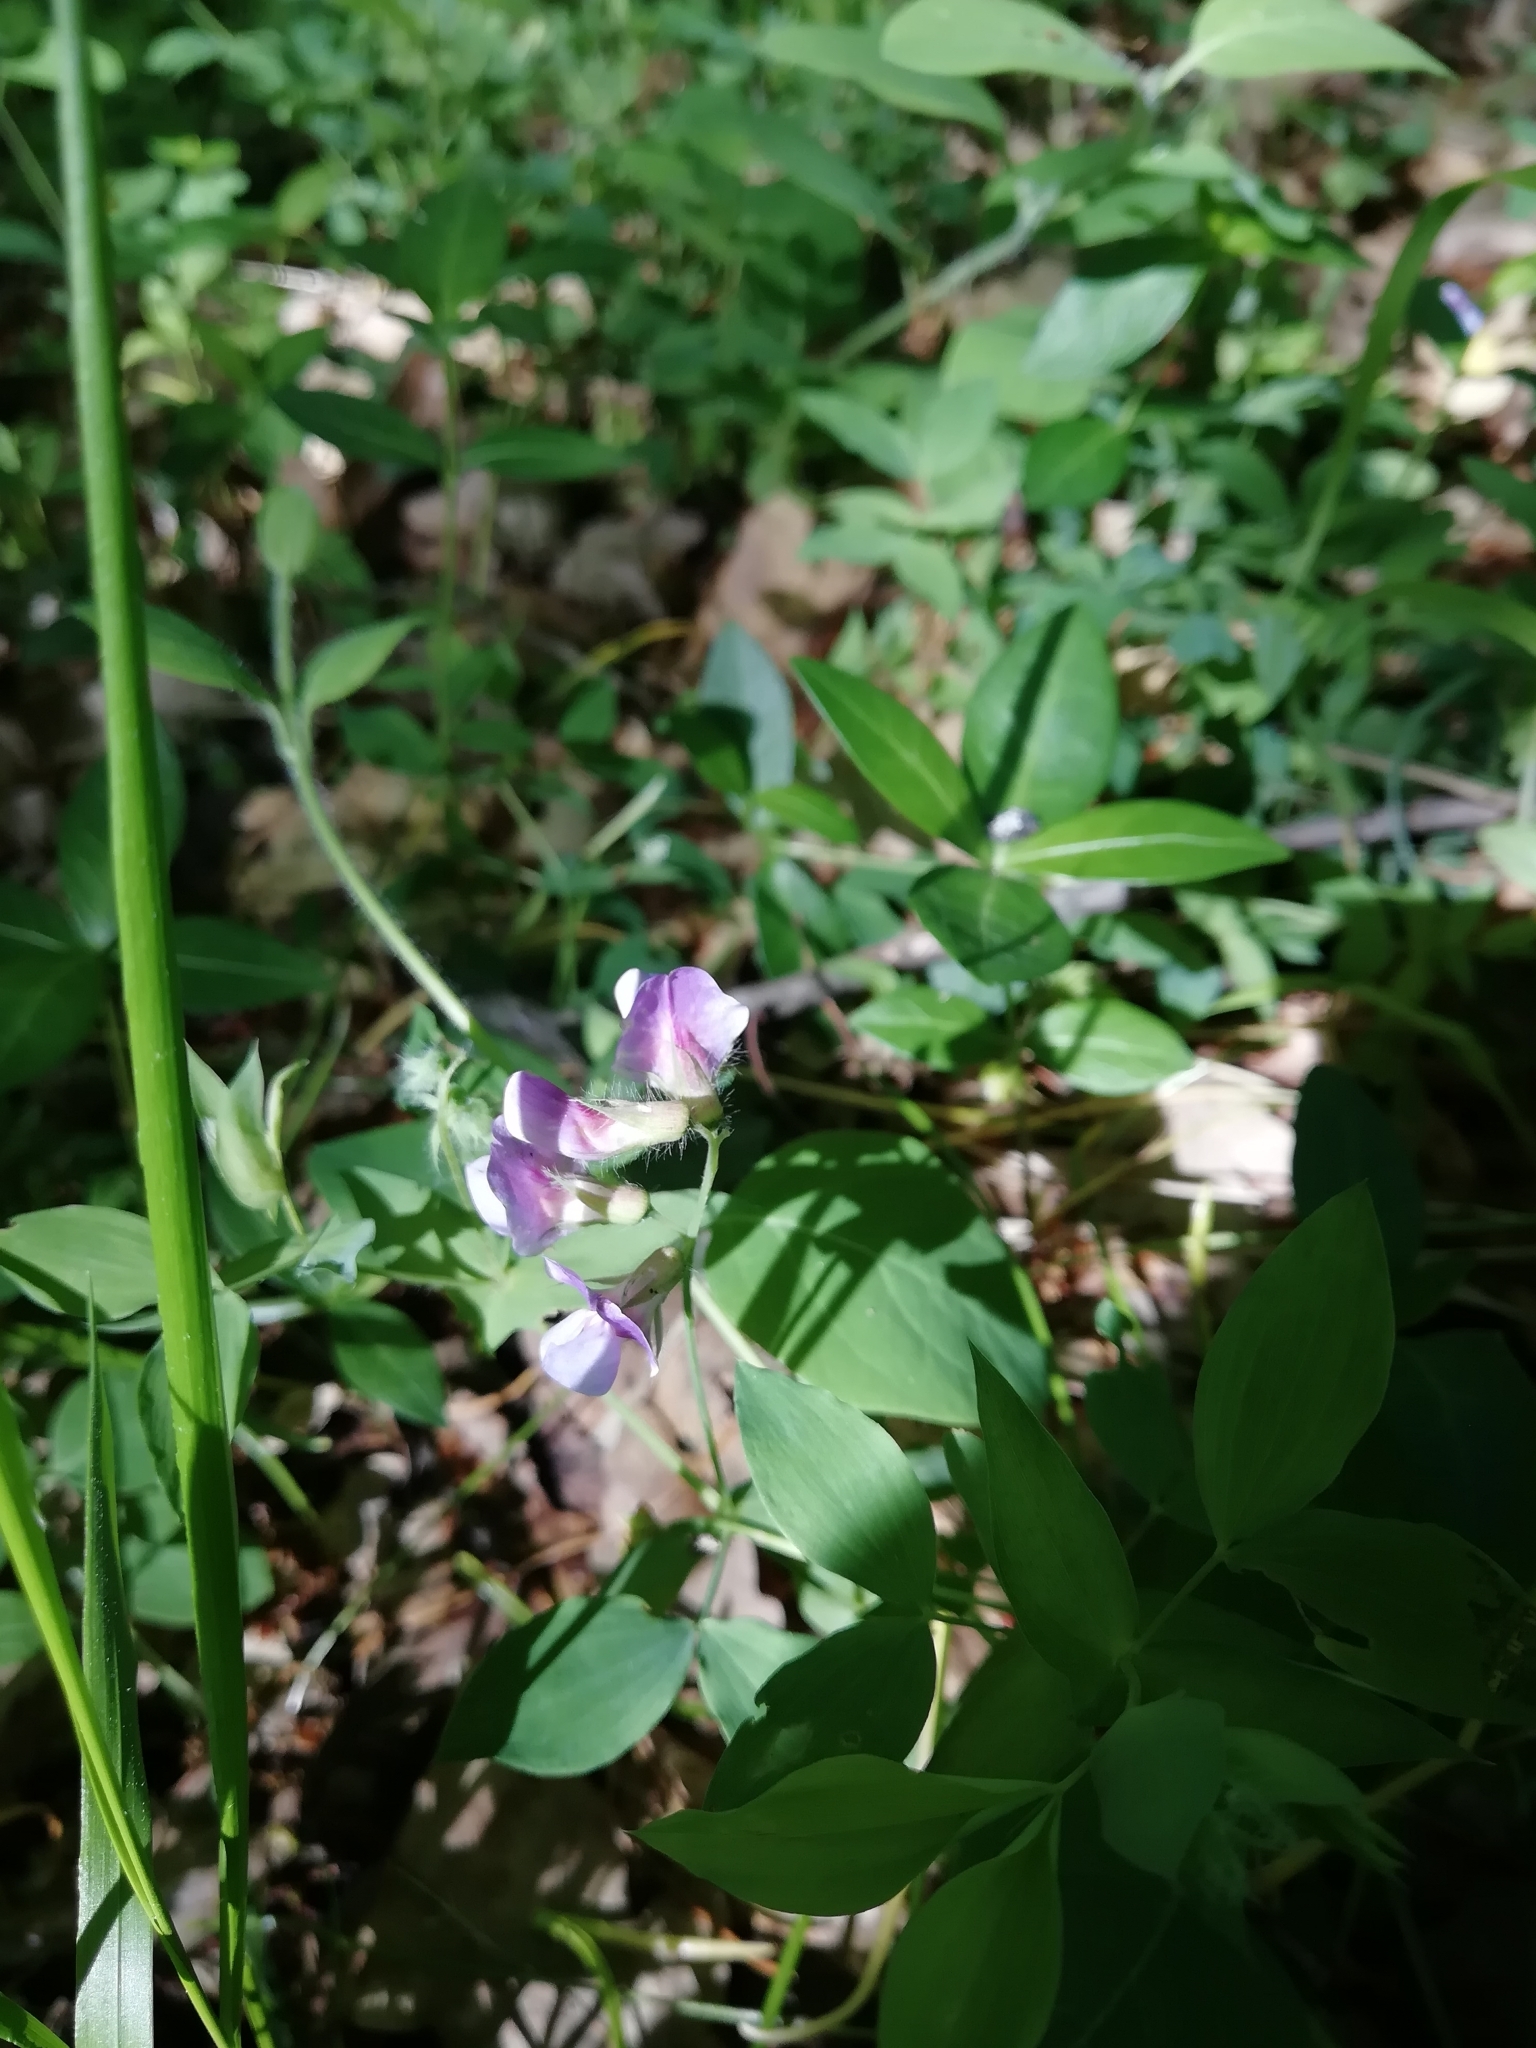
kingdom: Plantae
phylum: Tracheophyta
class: Magnoliopsida
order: Fabales
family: Fabaceae
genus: Lathyrus
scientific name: Lathyrus laxiflorus
